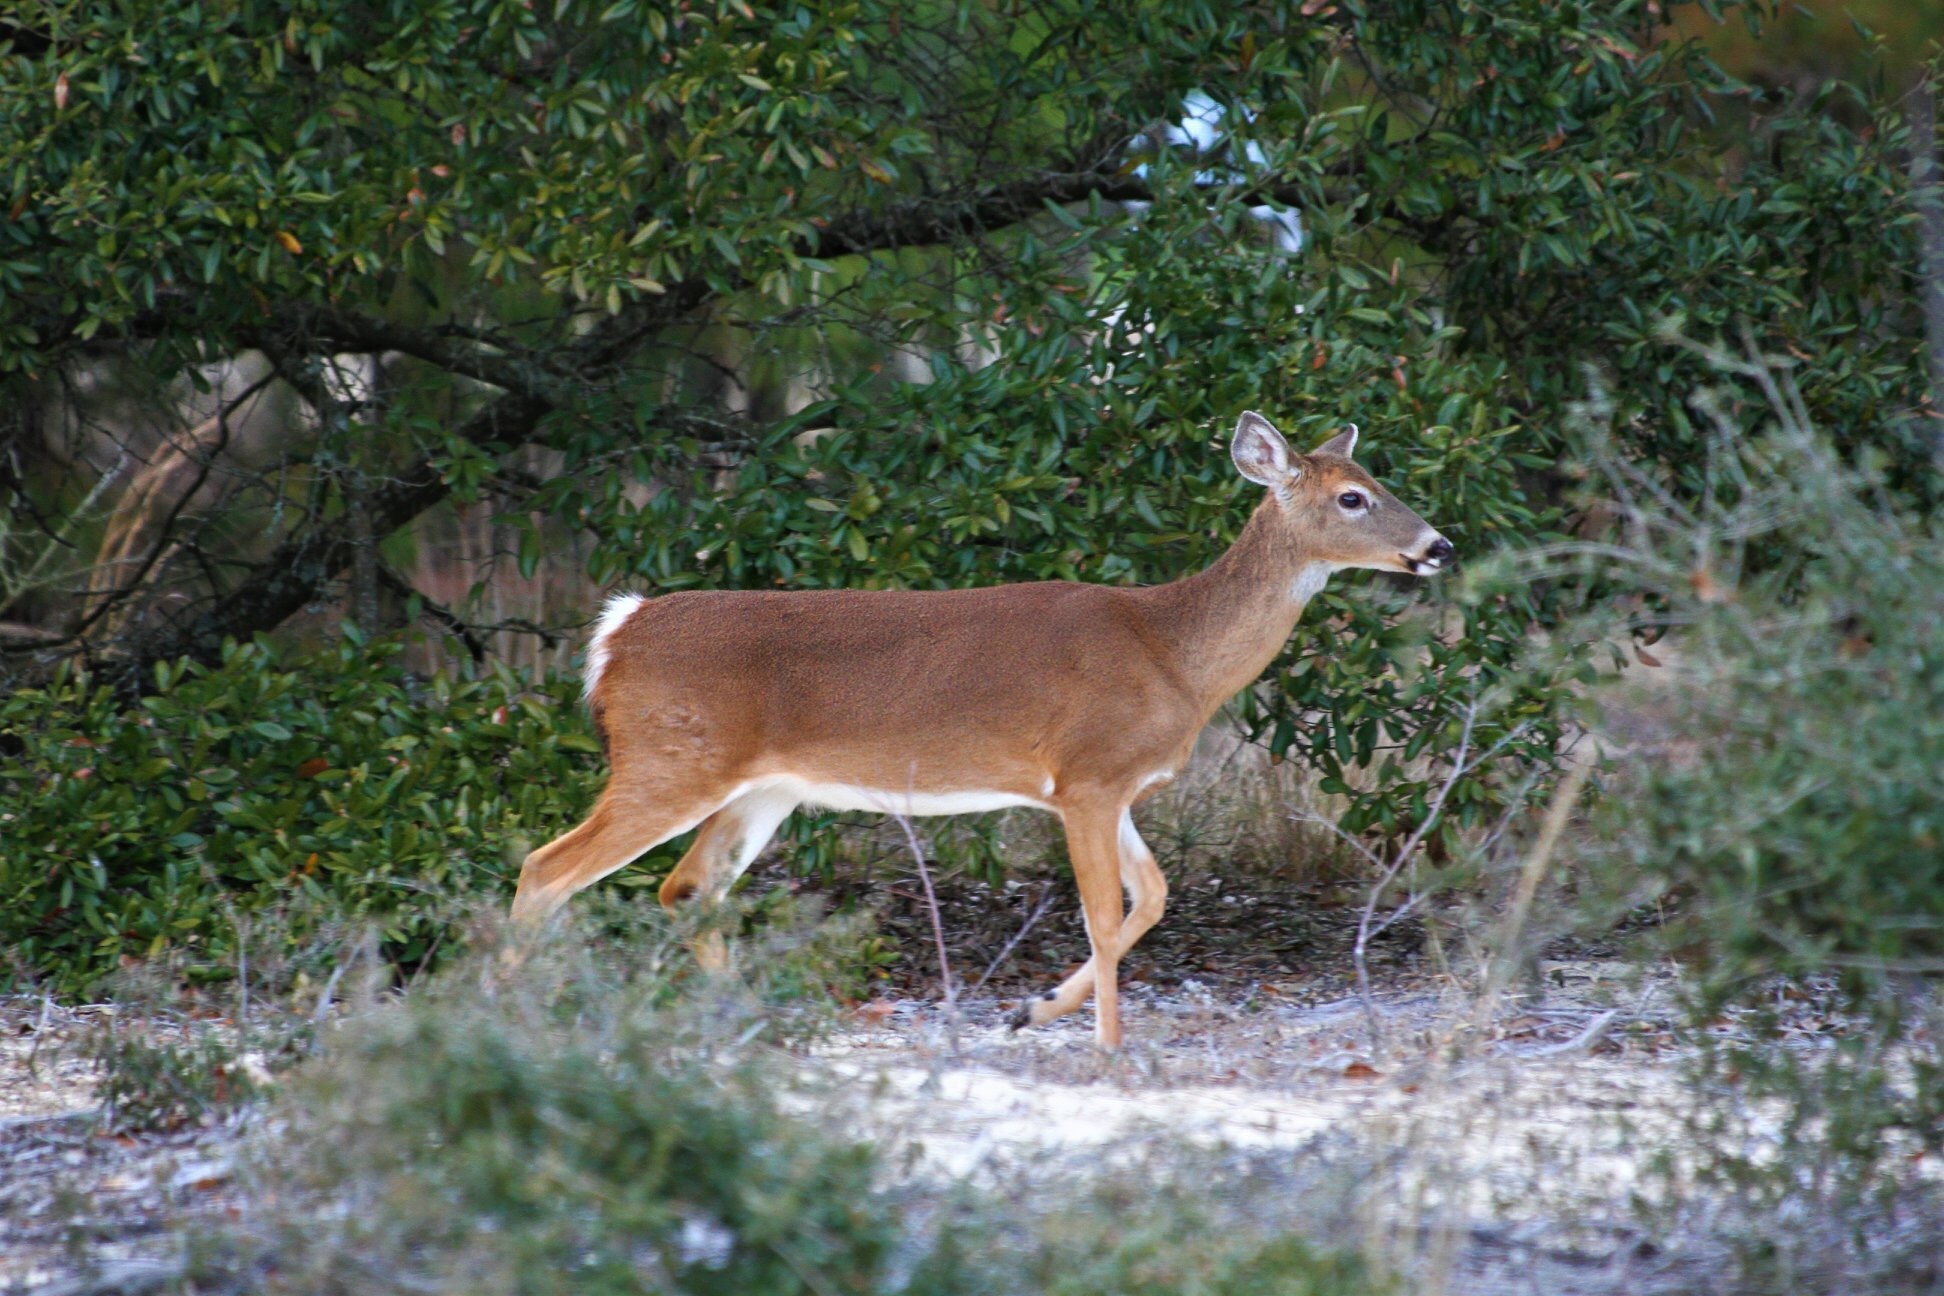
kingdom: Animalia
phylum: Chordata
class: Mammalia
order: Artiodactyla
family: Cervidae
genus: Odocoileus
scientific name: Odocoileus virginianus
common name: White-tailed deer
